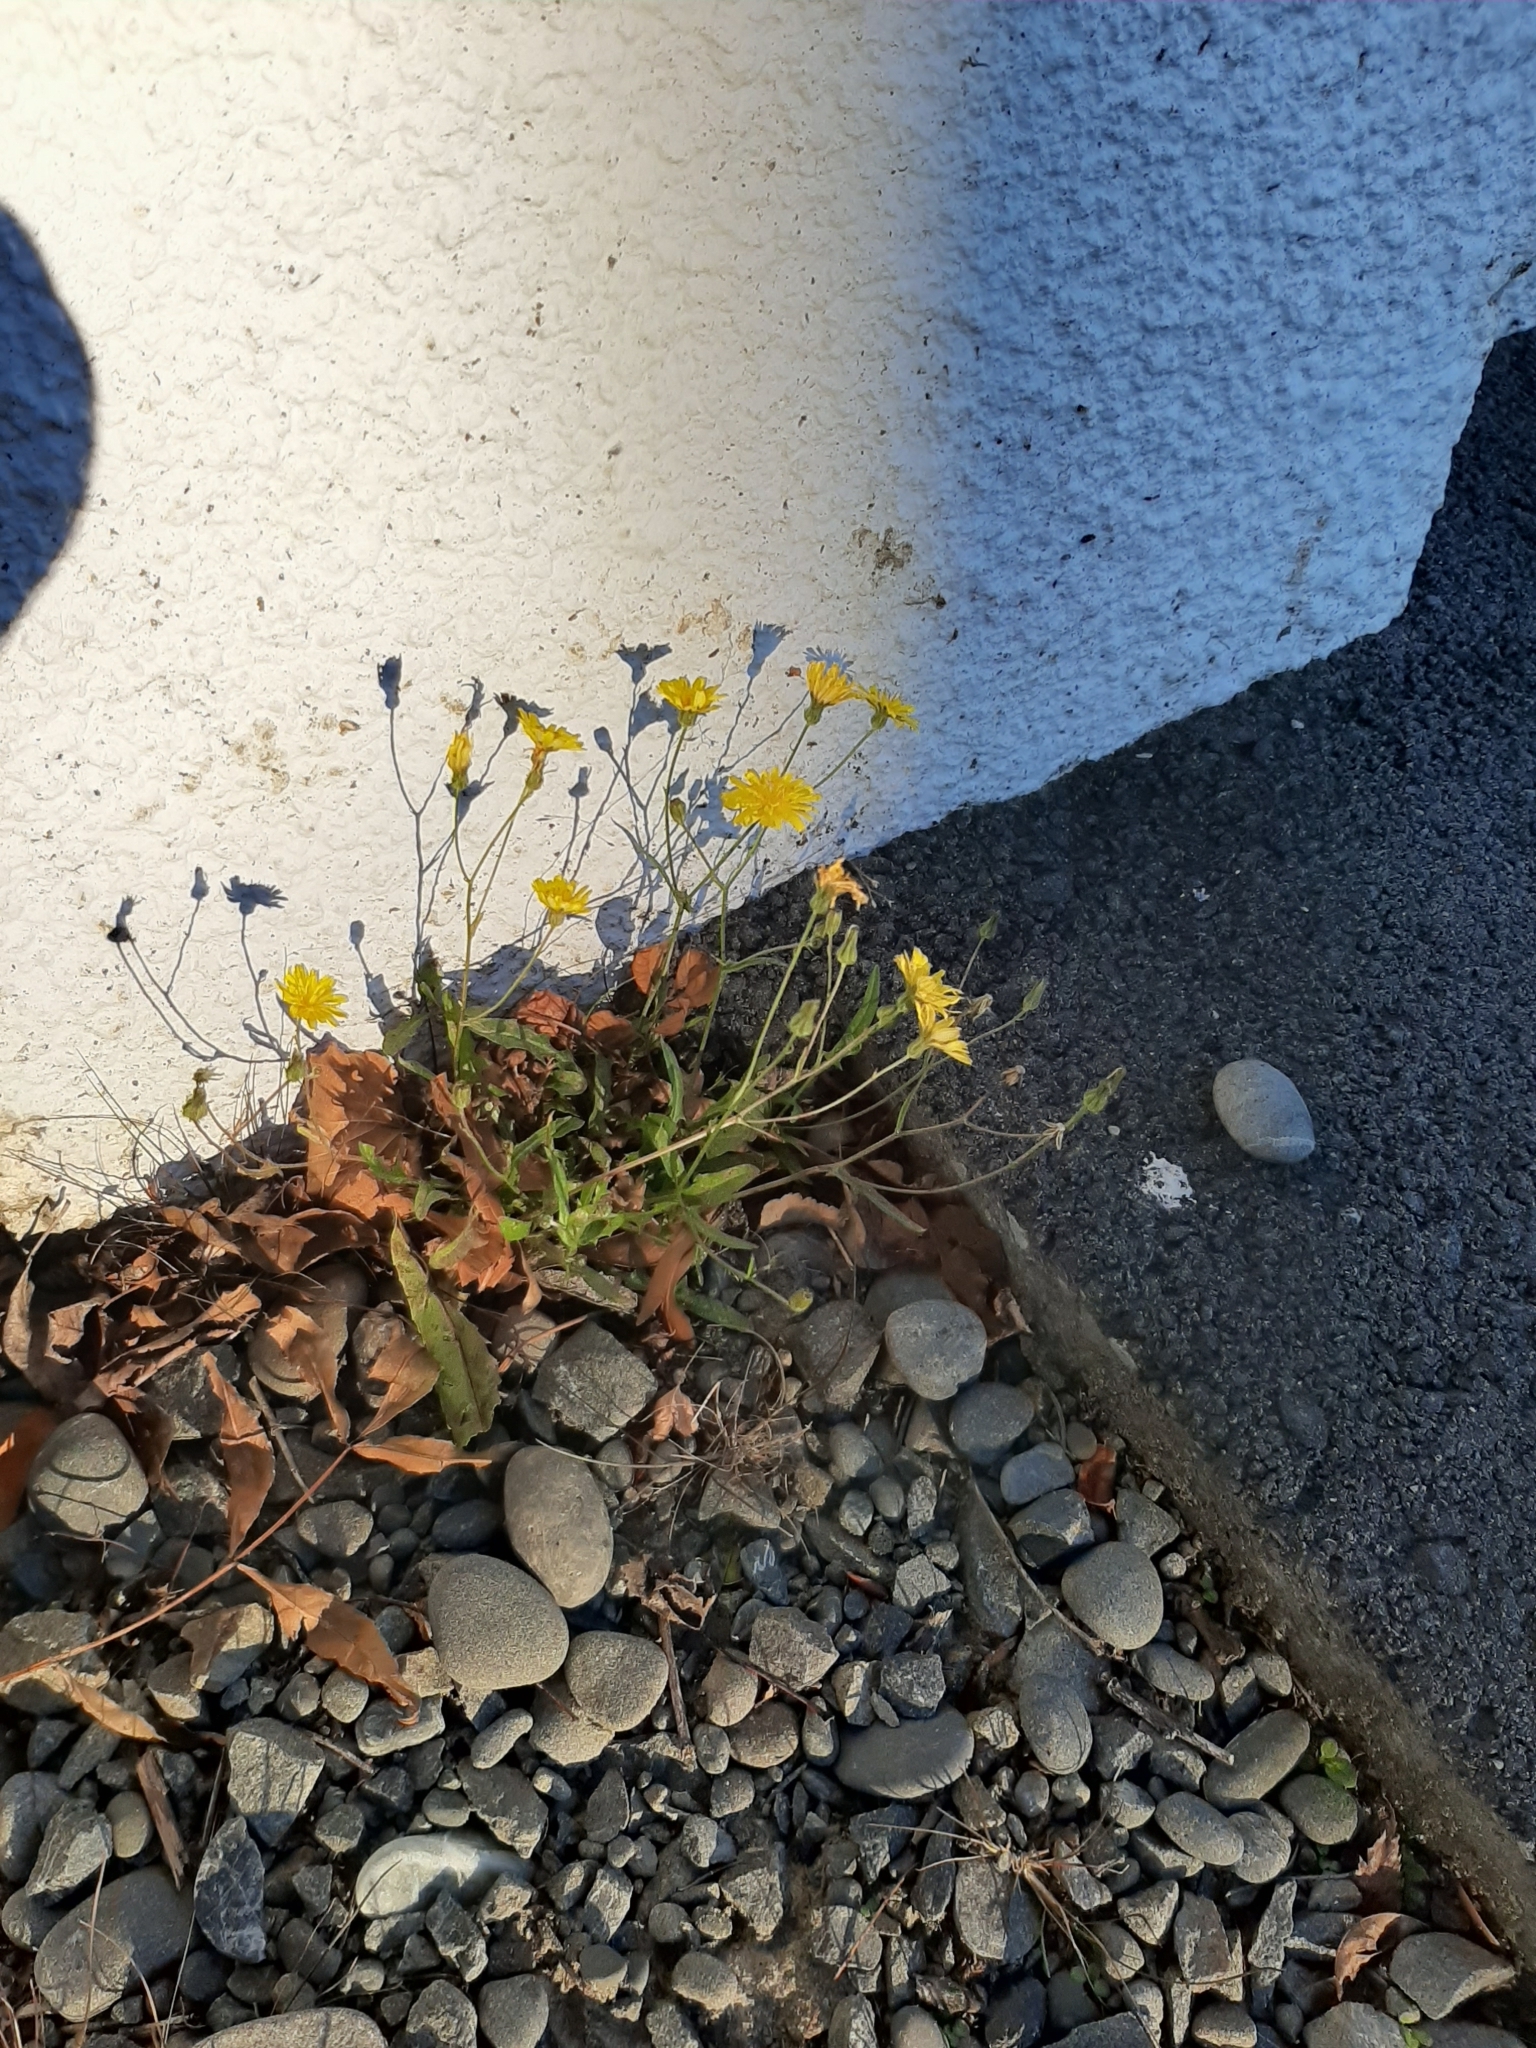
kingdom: Plantae
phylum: Tracheophyta
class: Magnoliopsida
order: Asterales
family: Asteraceae
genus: Crepis
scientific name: Crepis capillaris
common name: Smooth hawksbeard
